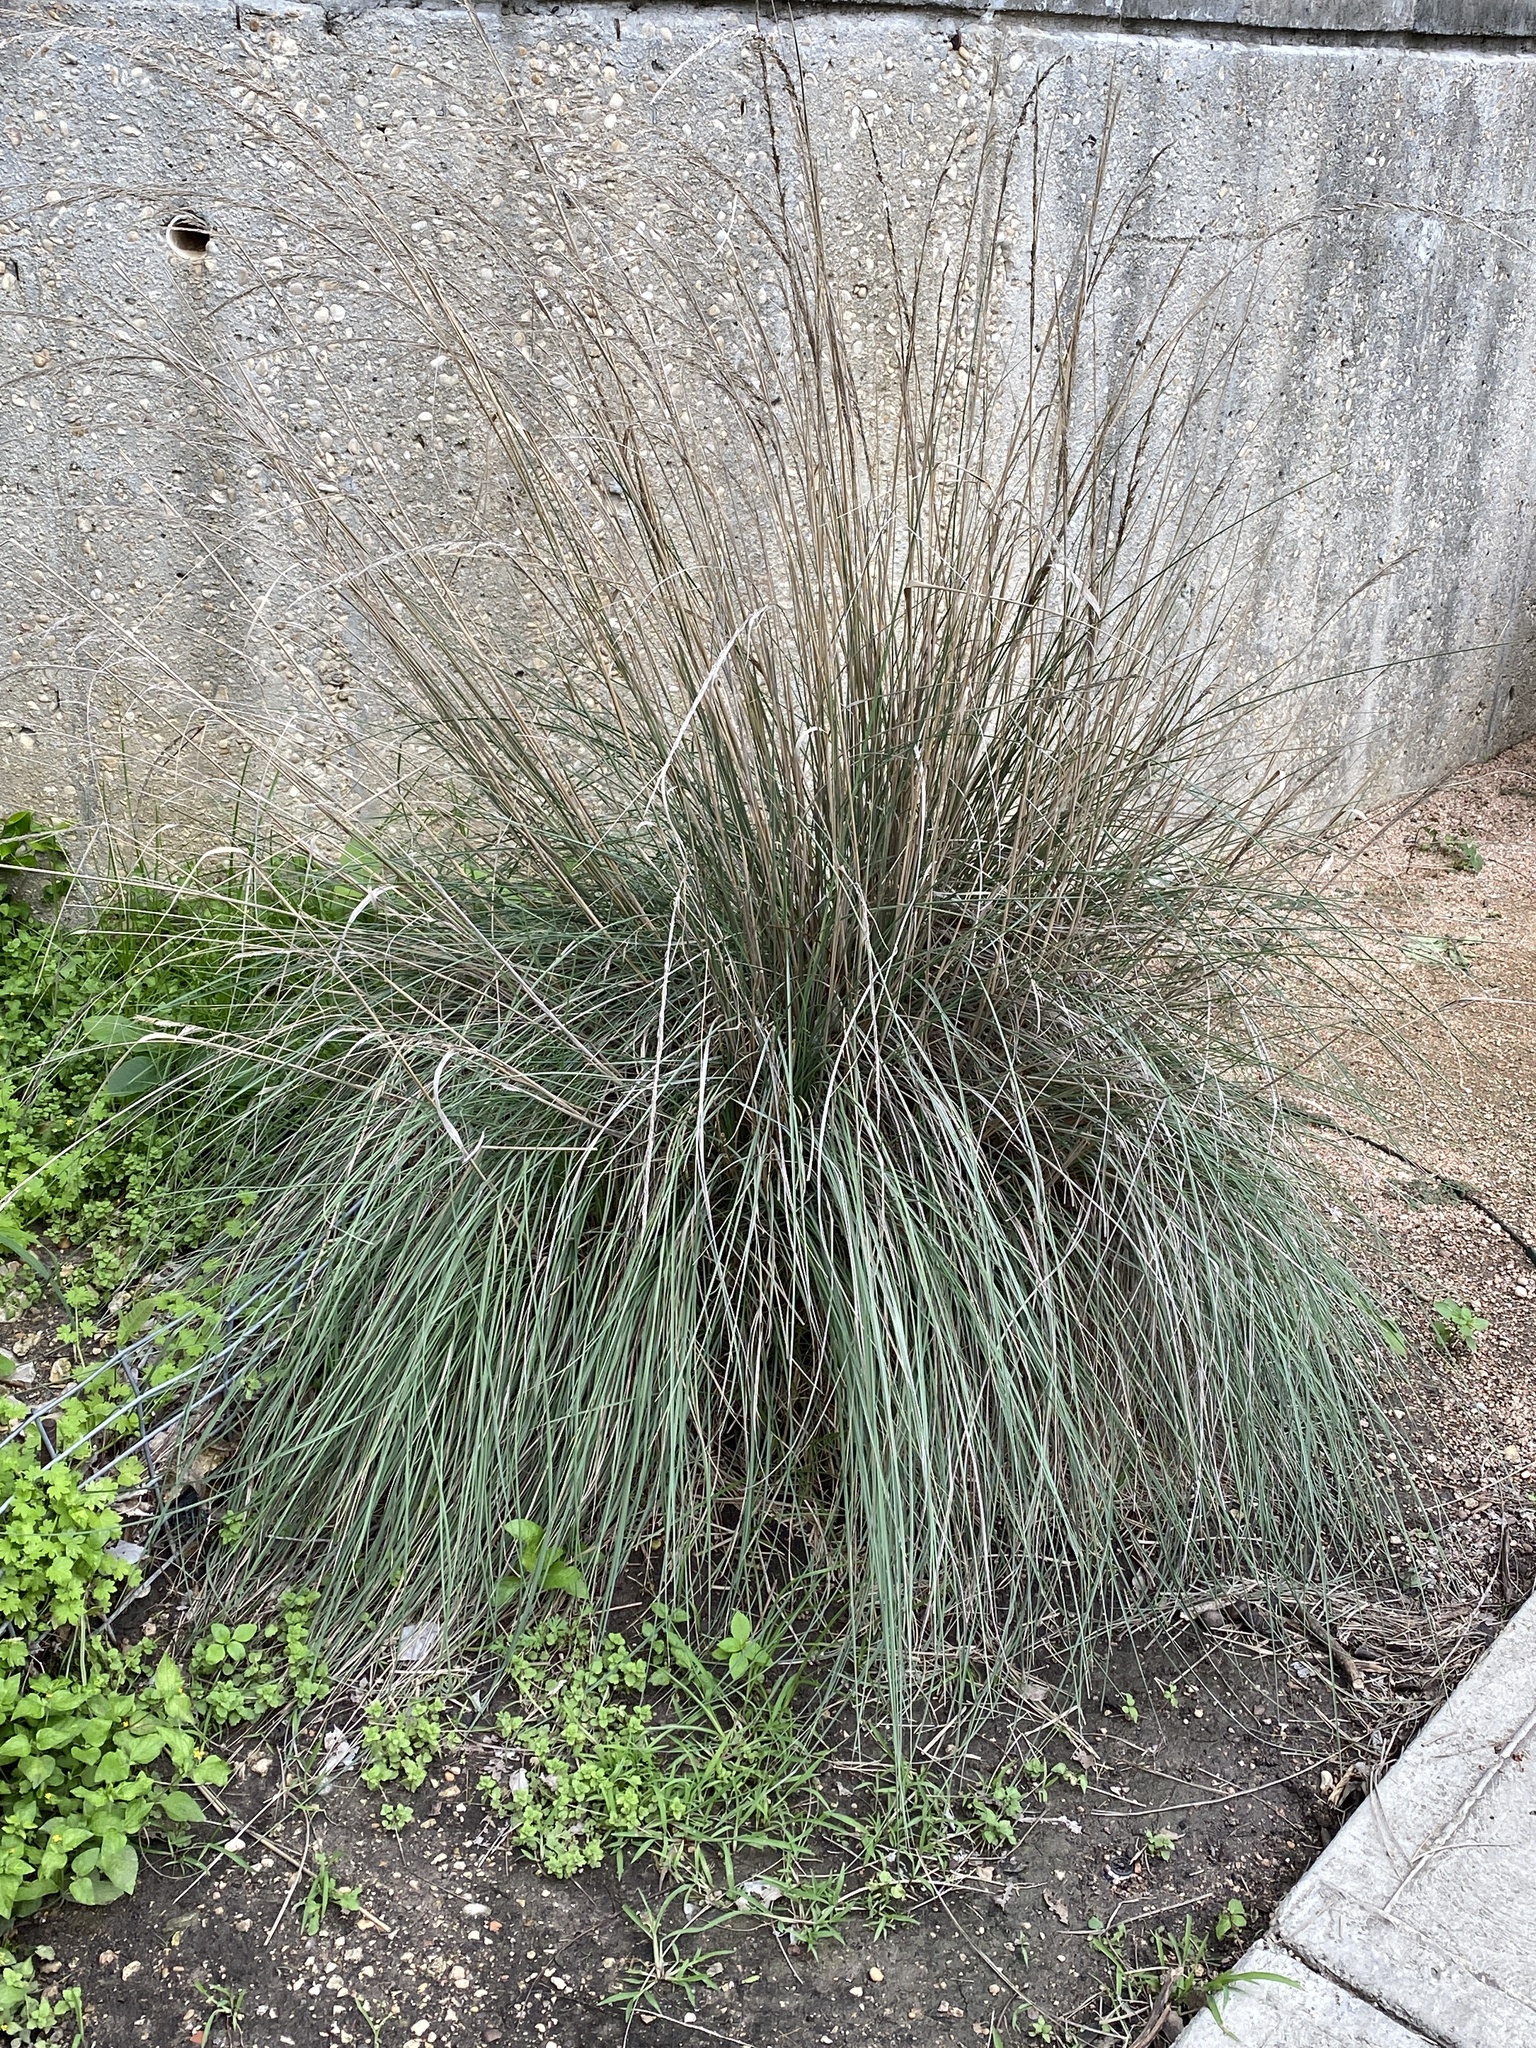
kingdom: Plantae
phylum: Tracheophyta
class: Liliopsida
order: Poales
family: Poaceae
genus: Muhlenbergia
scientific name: Muhlenbergia lindheimeri
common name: Lindheimer's muhly
